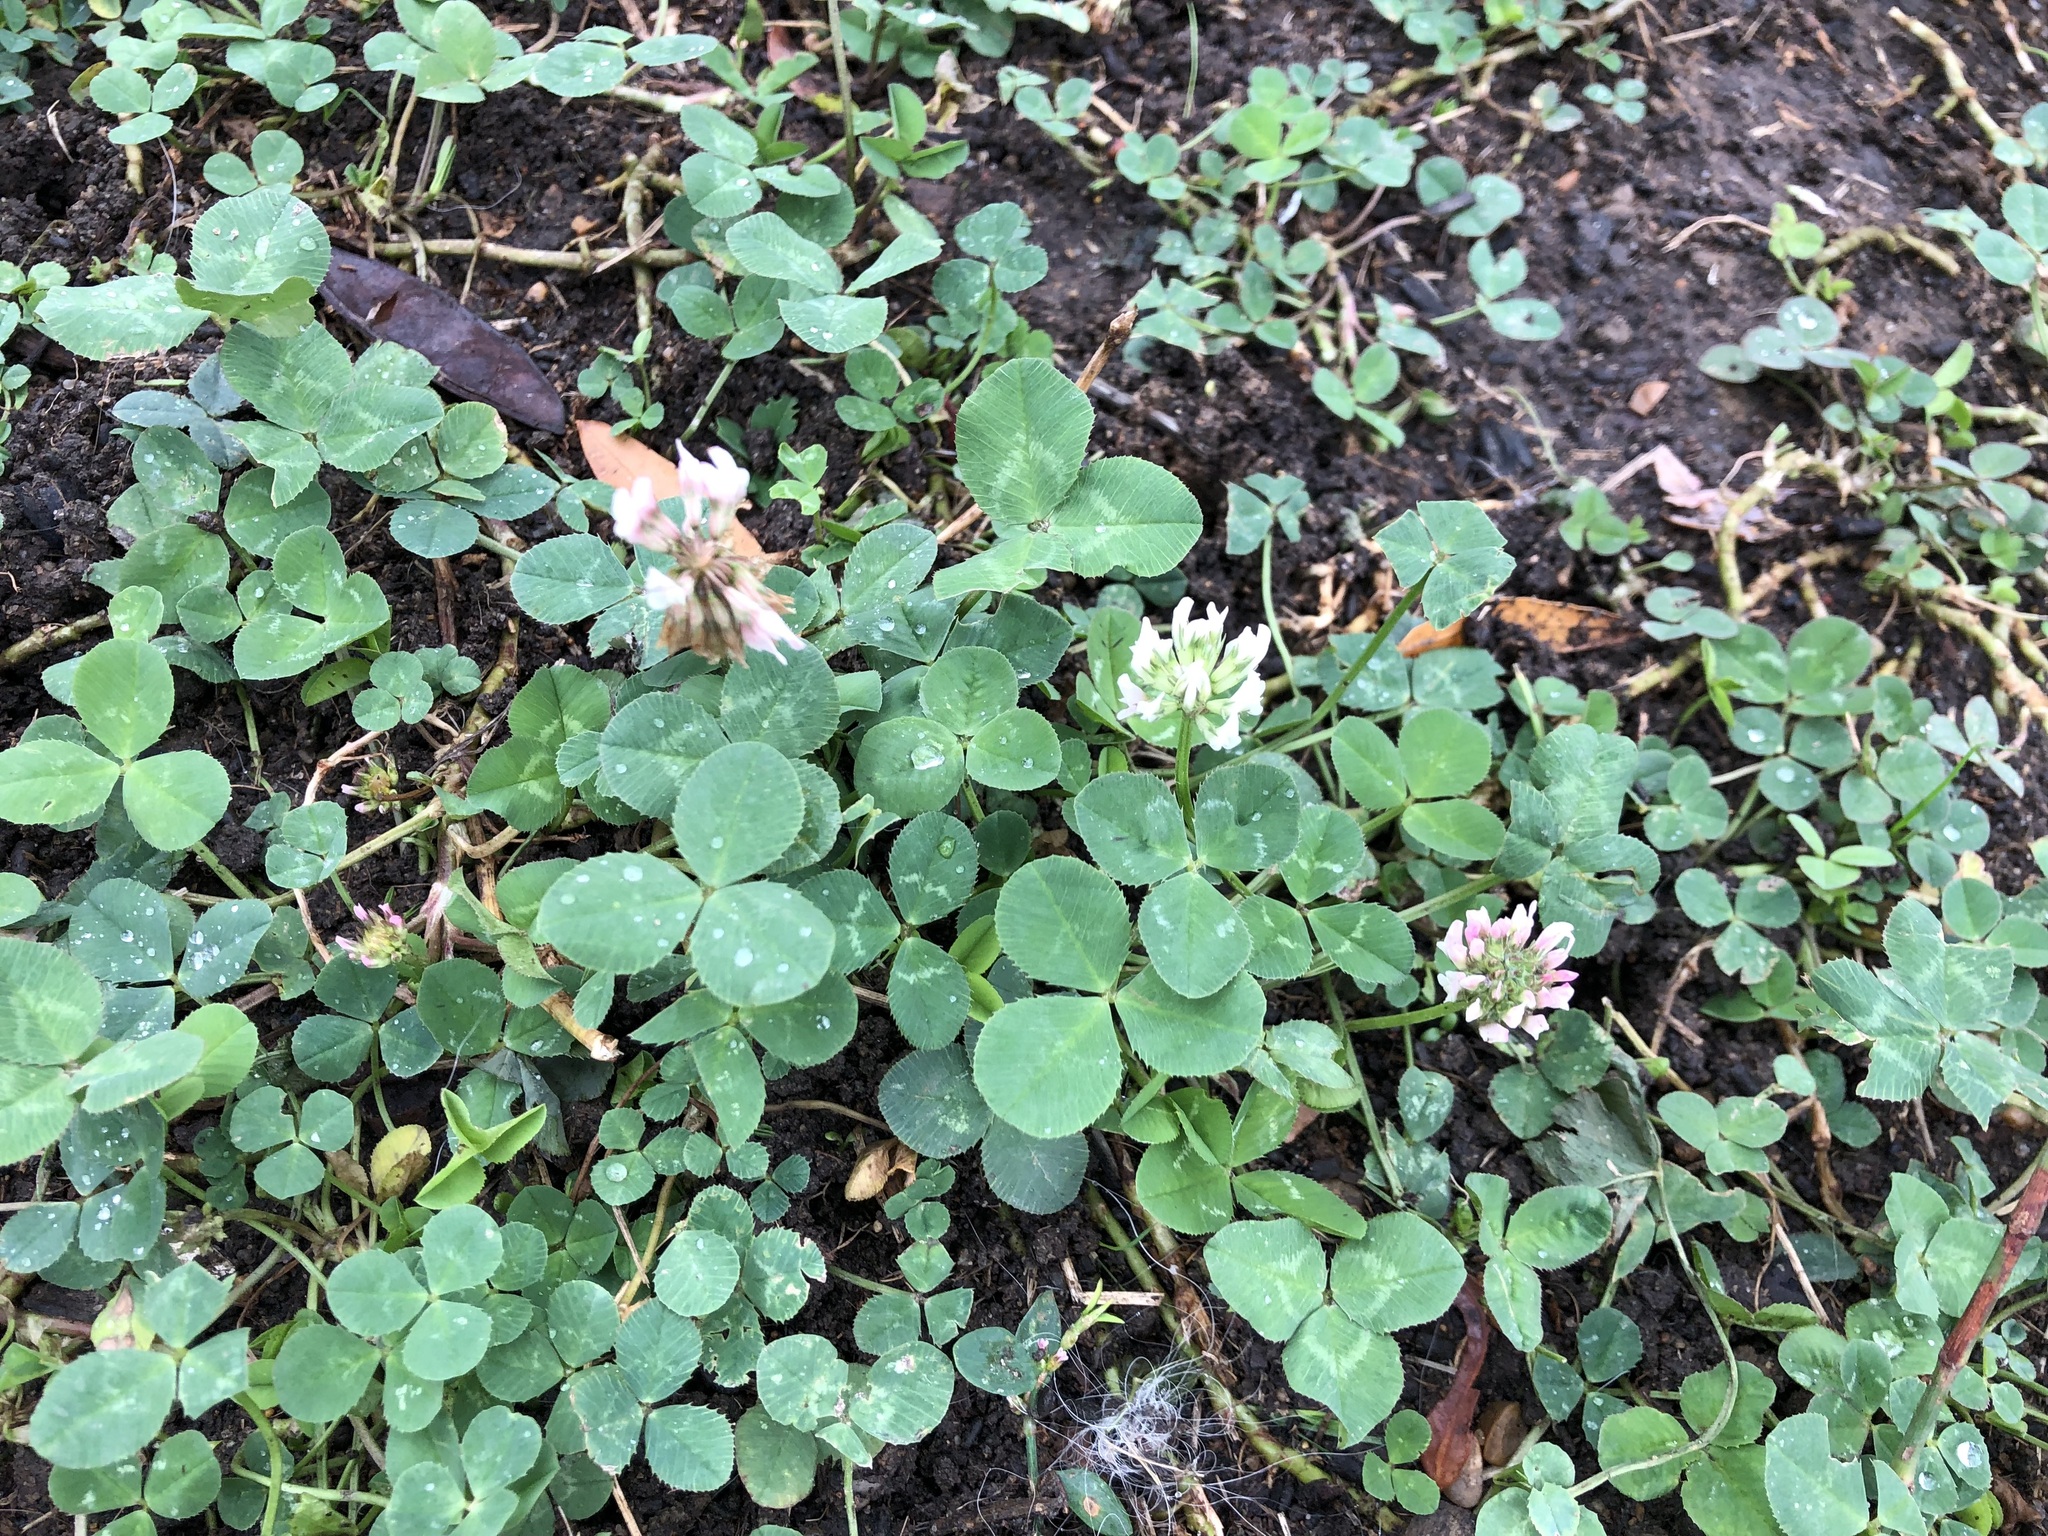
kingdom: Plantae
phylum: Tracheophyta
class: Magnoliopsida
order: Fabales
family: Fabaceae
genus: Trifolium
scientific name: Trifolium repens
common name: White clover
